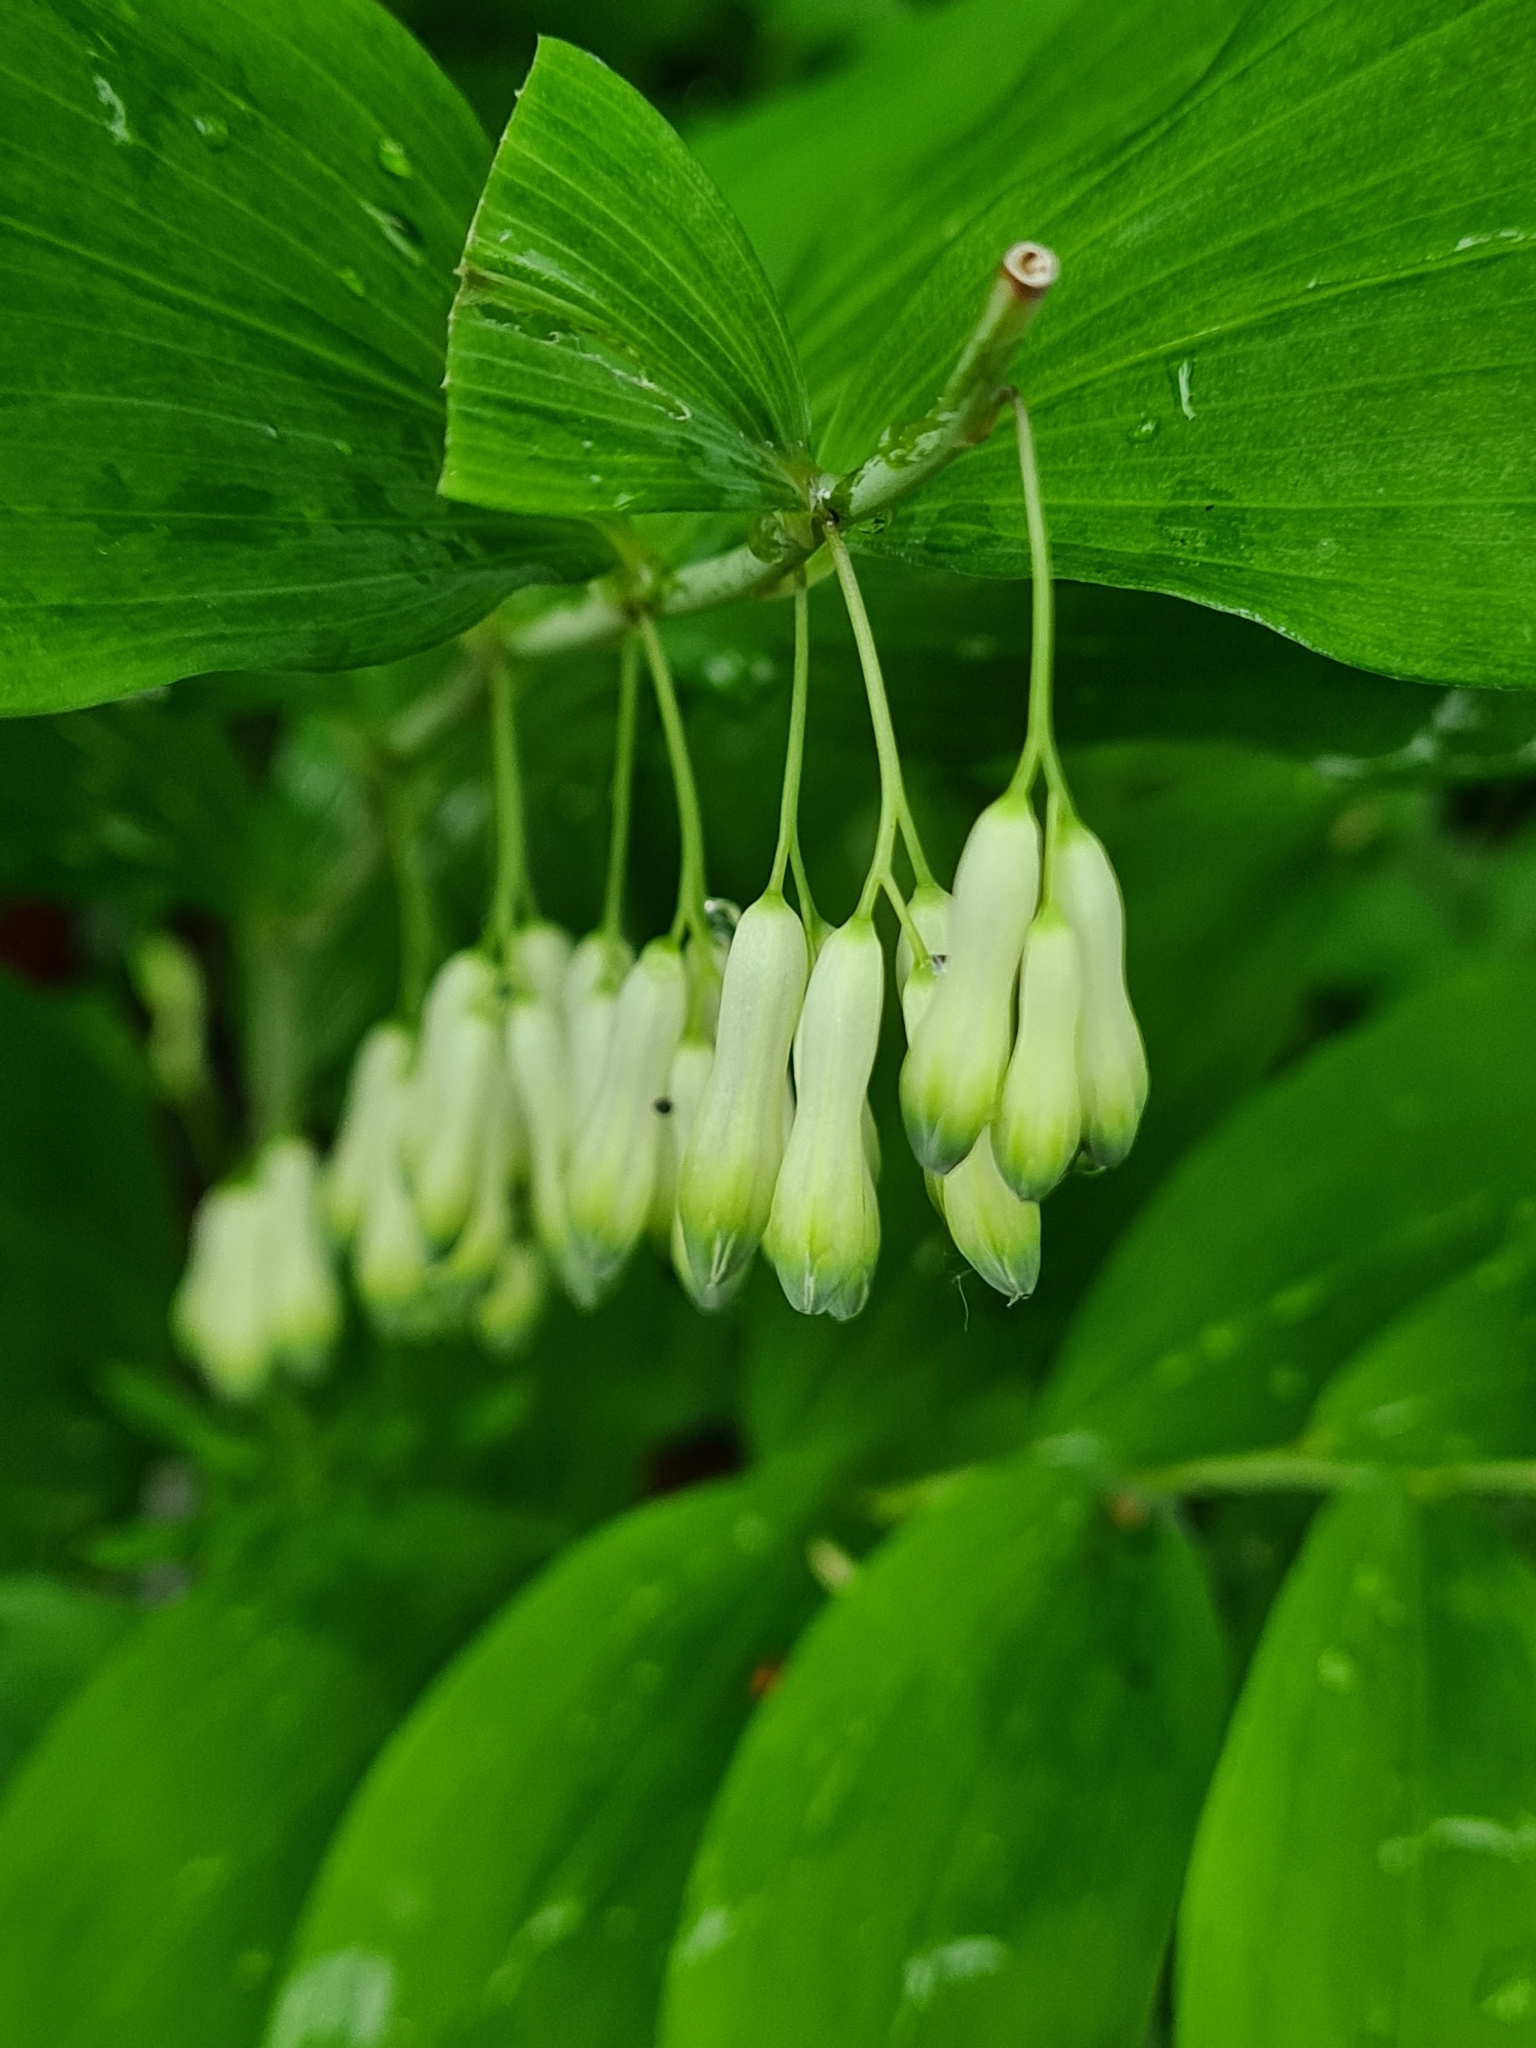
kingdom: Plantae
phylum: Tracheophyta
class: Liliopsida
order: Asparagales
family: Asparagaceae
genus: Polygonatum
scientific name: Polygonatum multiflorum
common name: Solomon's-seal
